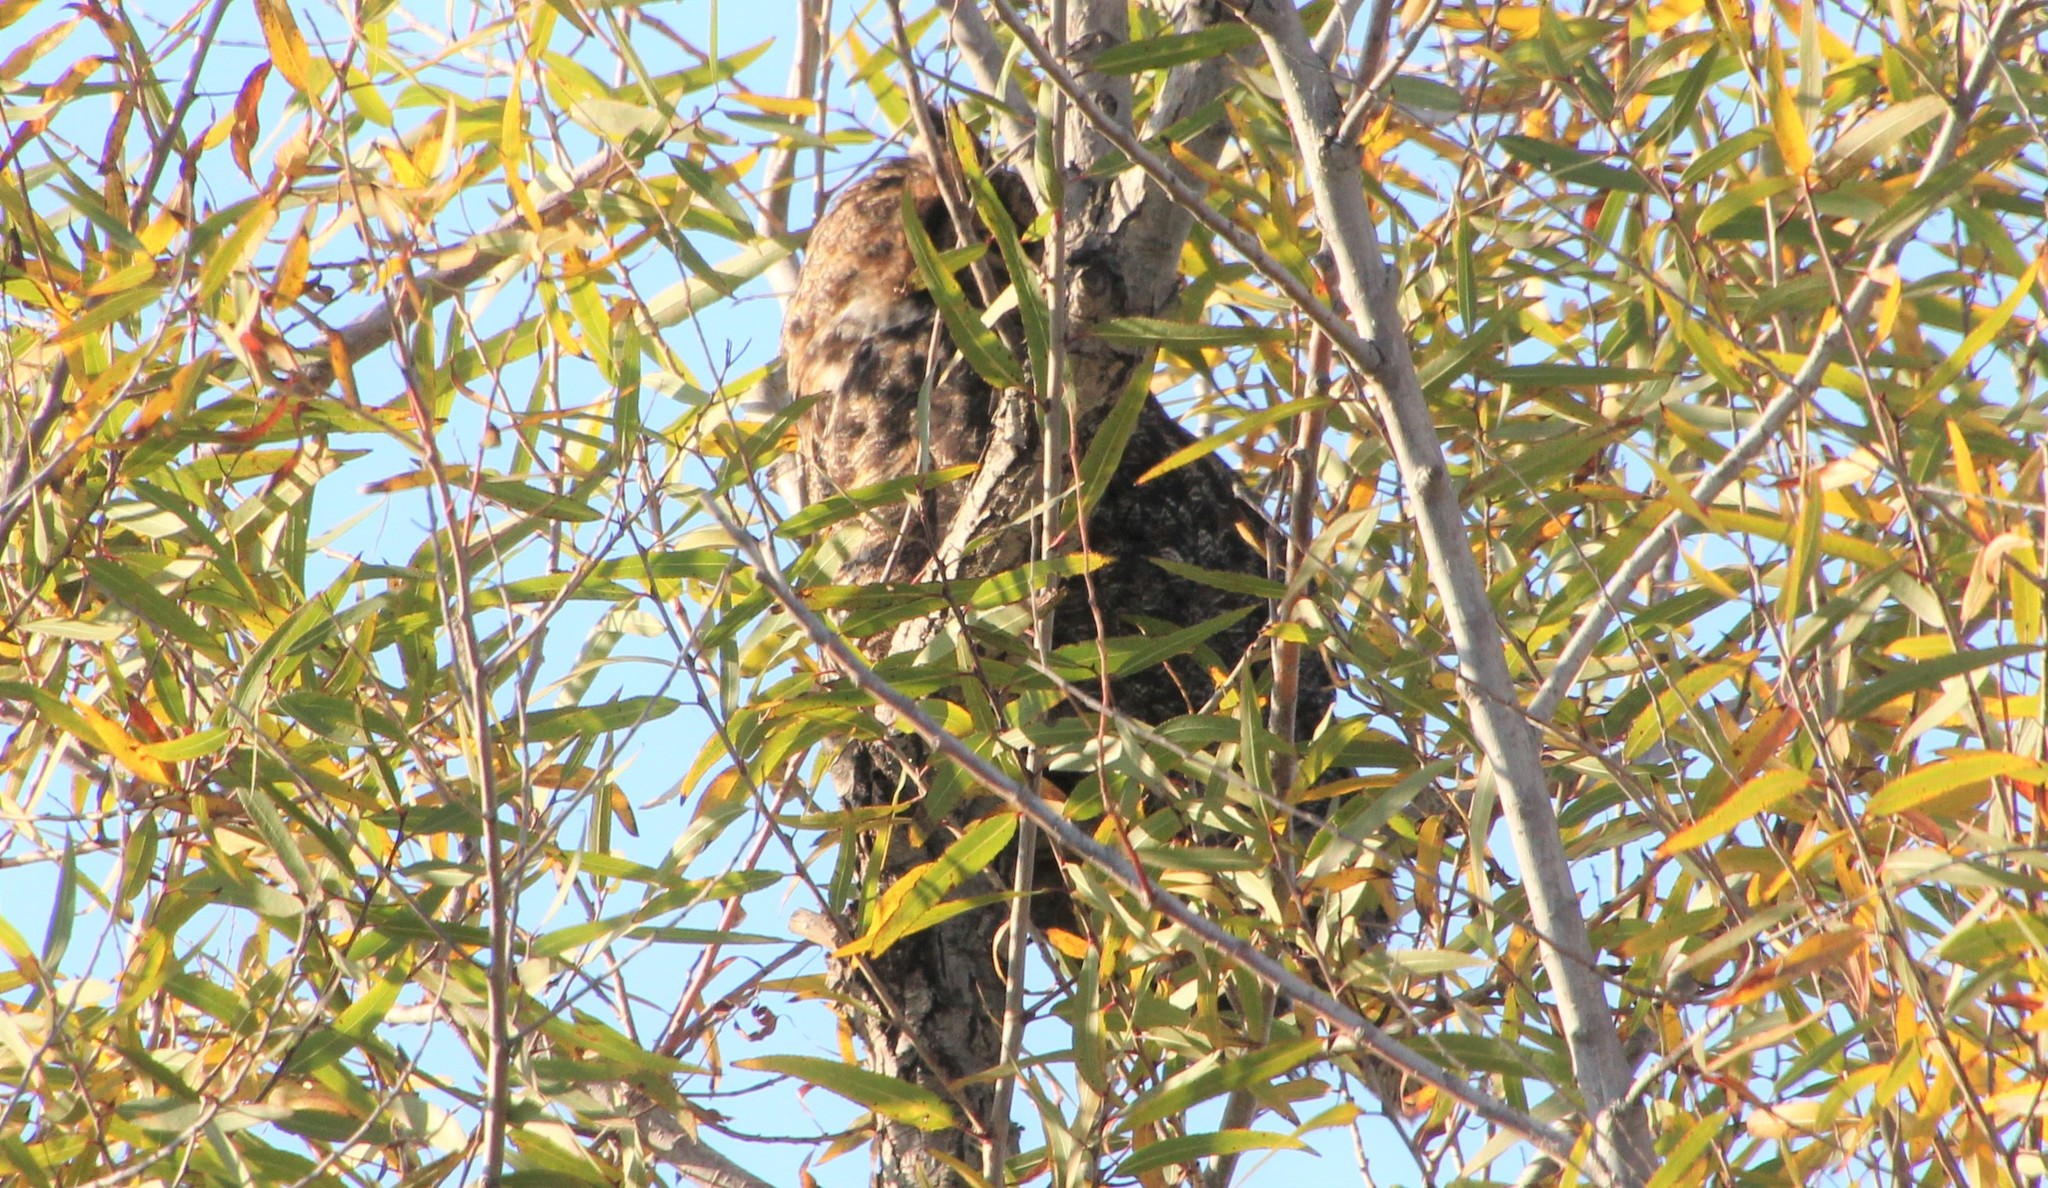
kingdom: Animalia
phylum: Chordata
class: Aves
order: Strigiformes
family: Strigidae
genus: Bubo
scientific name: Bubo virginianus
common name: Great horned owl
